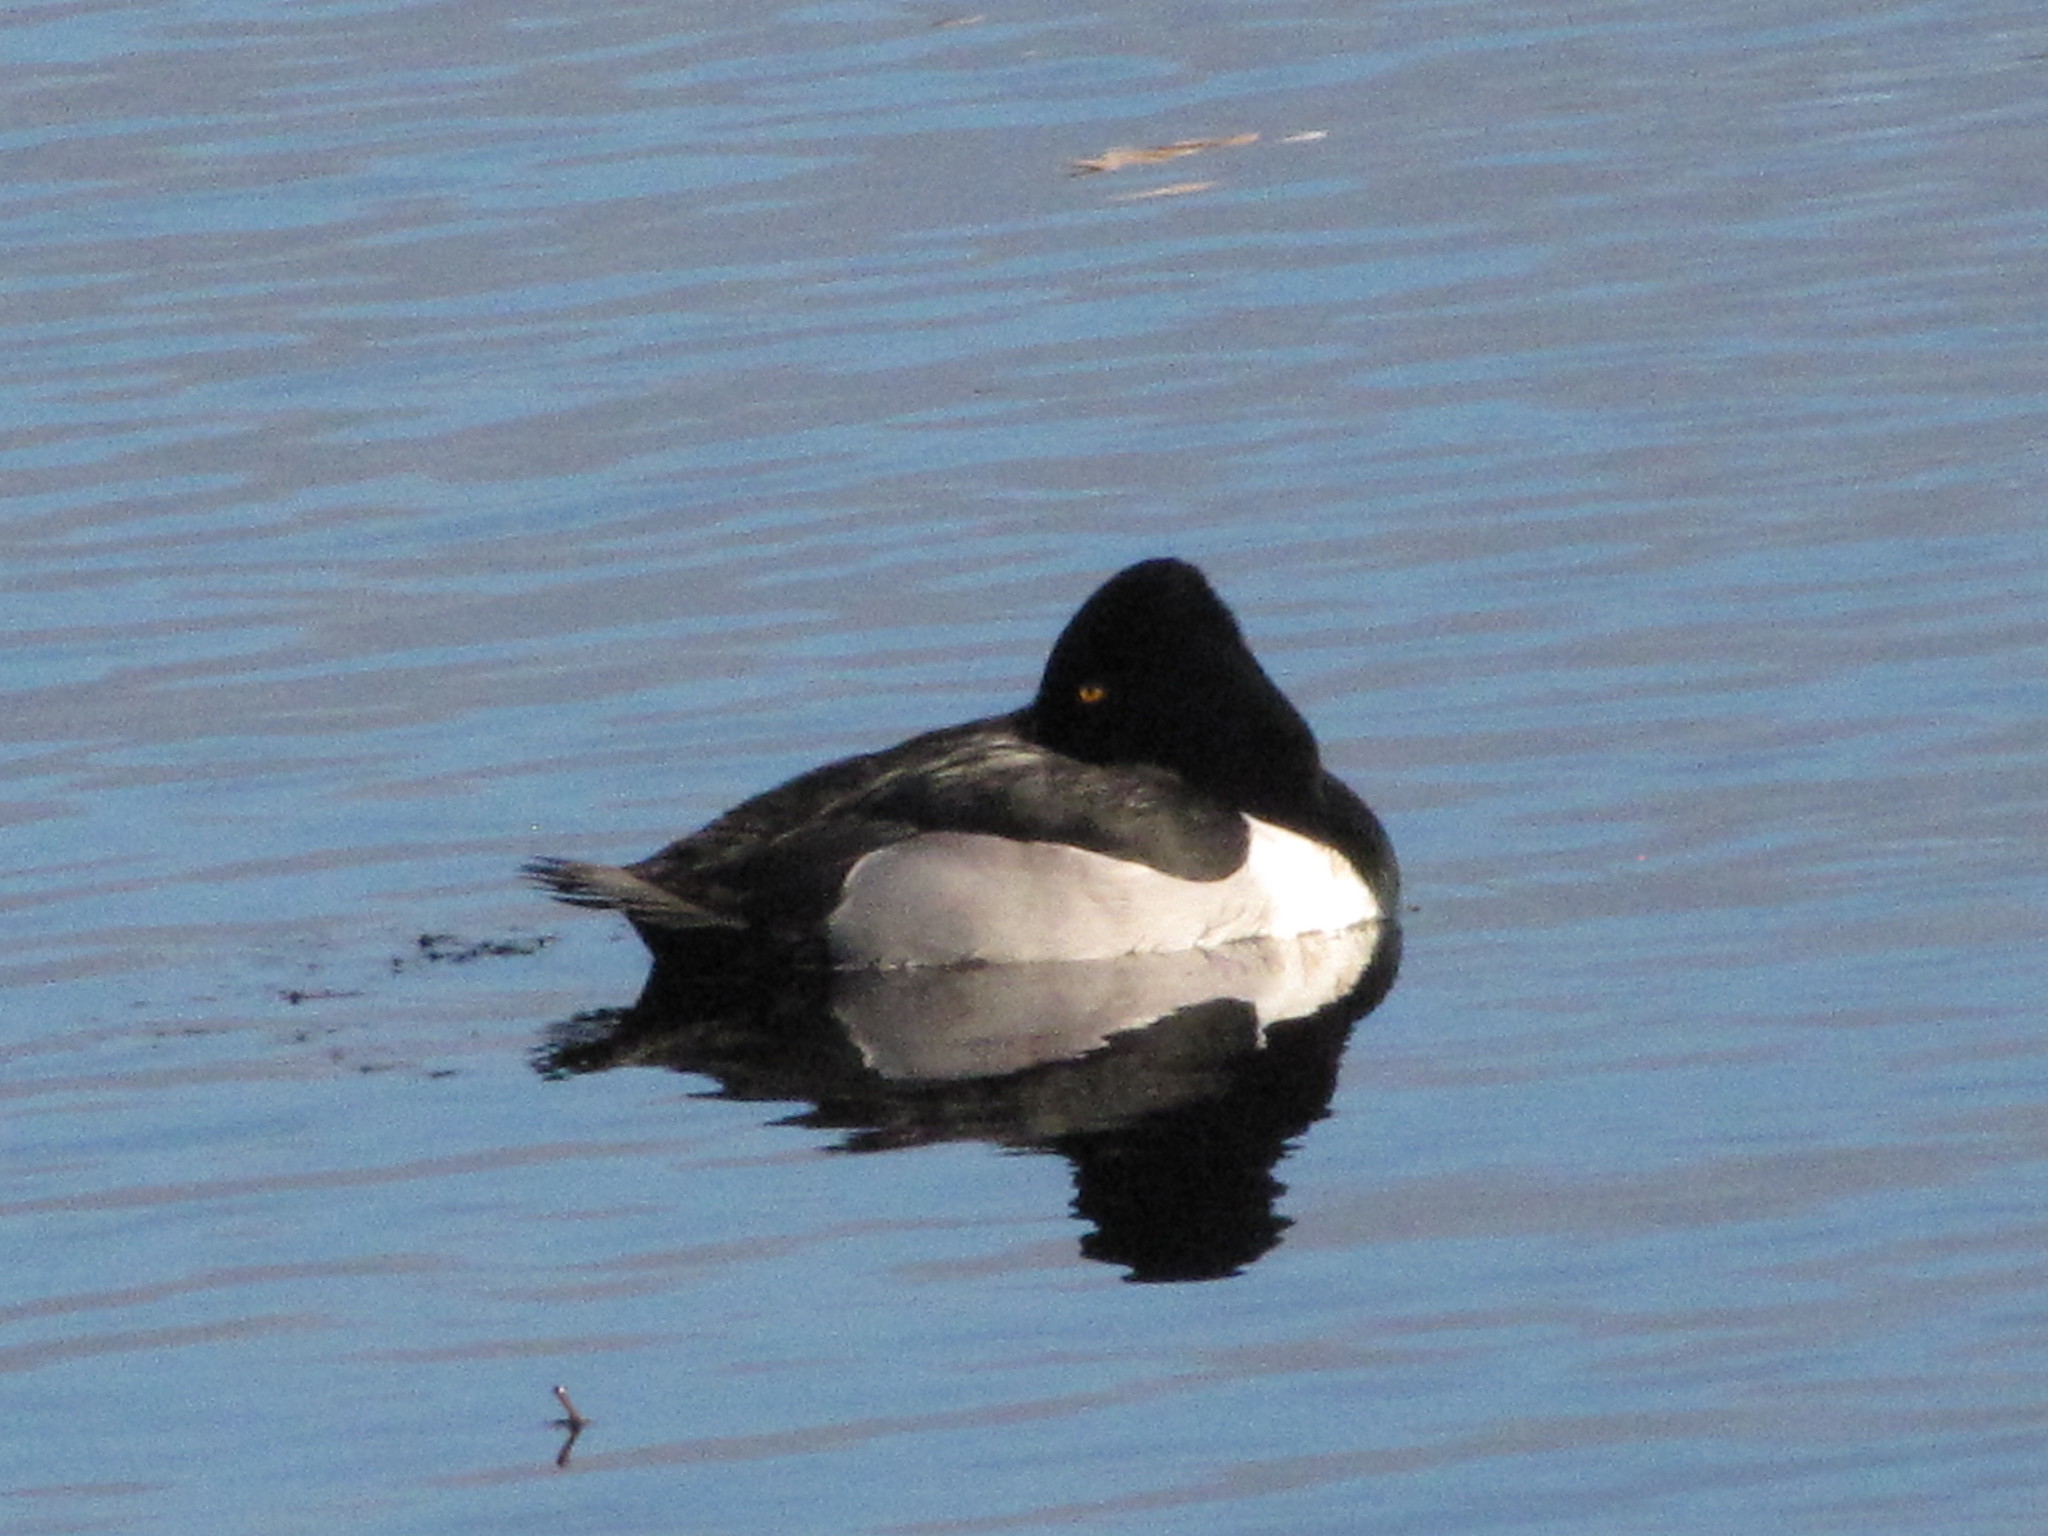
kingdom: Animalia
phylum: Chordata
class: Aves
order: Anseriformes
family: Anatidae
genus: Aythya
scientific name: Aythya collaris
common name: Ring-necked duck
